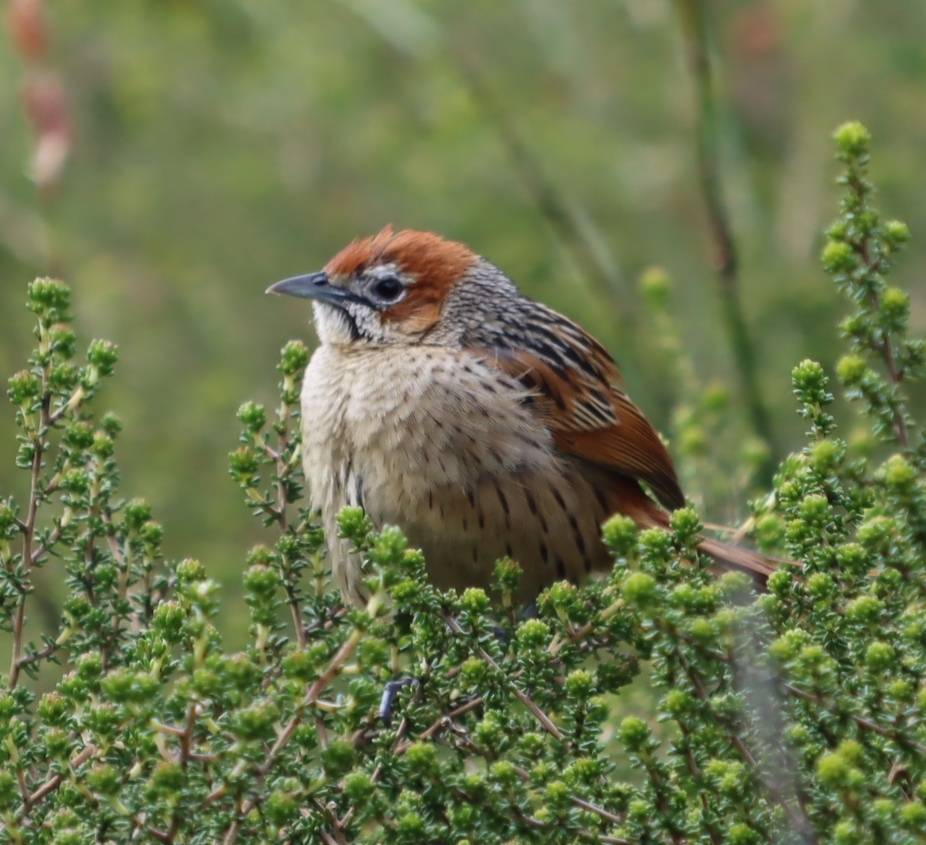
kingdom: Animalia
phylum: Chordata
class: Aves
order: Passeriformes
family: Macrosphenidae
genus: Sphenoeacus
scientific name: Sphenoeacus afer
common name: Cape grassbird
